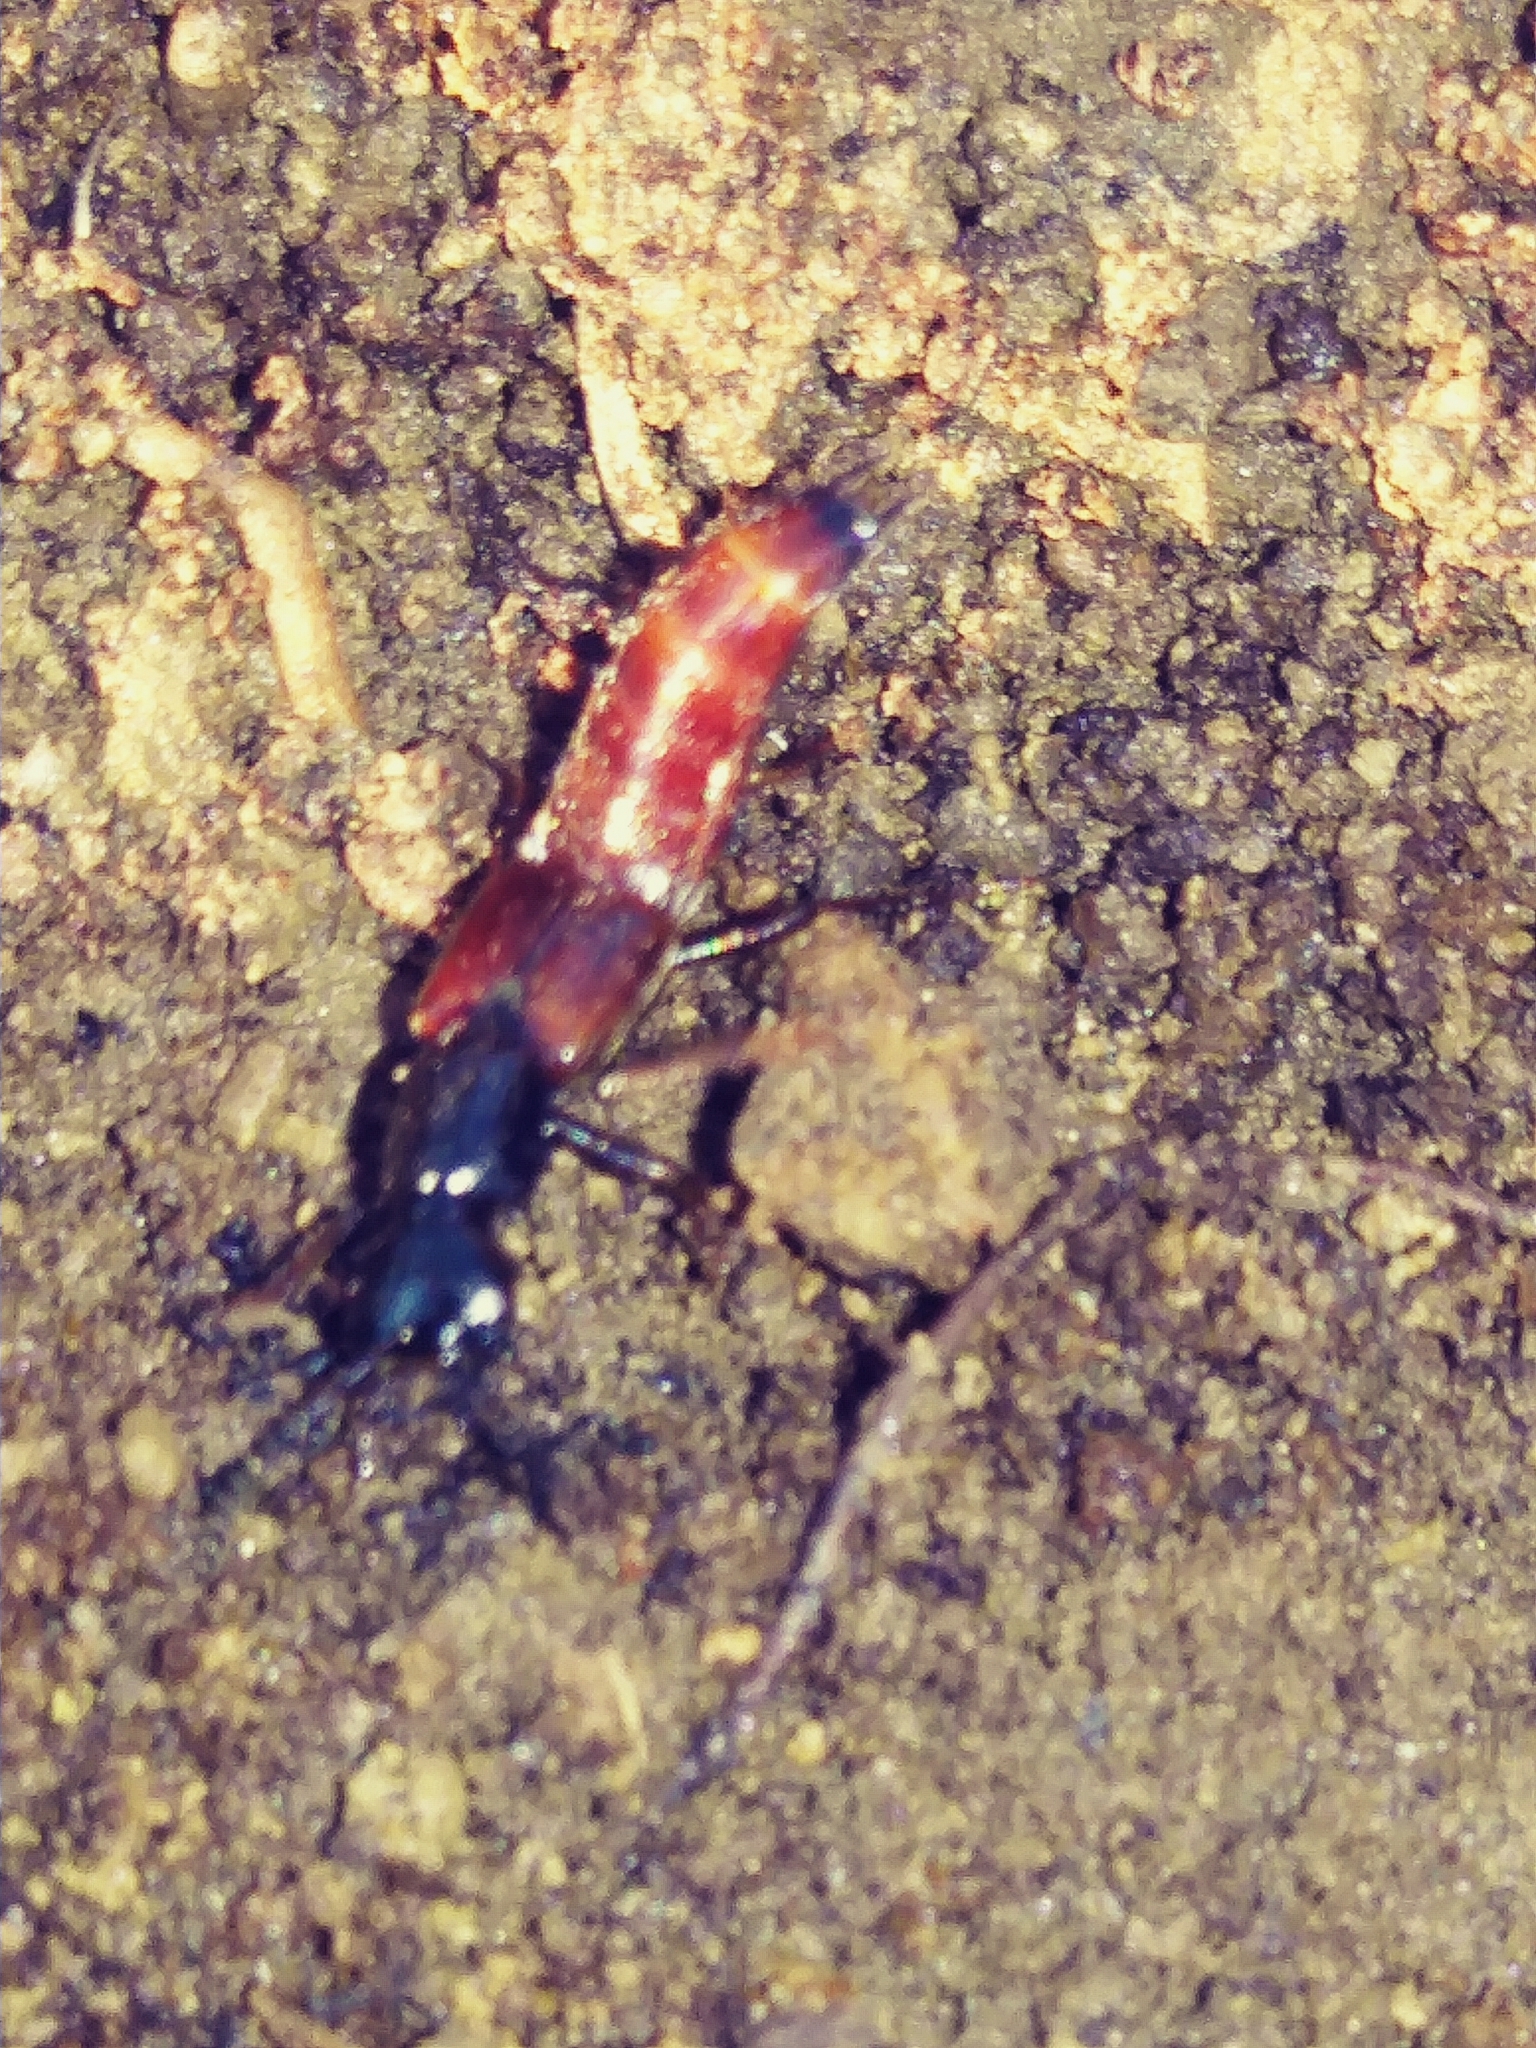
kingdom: Animalia
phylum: Arthropoda
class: Insecta
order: Coleoptera
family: Staphylinidae
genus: Hesperus
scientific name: Hesperus baltimorensis
